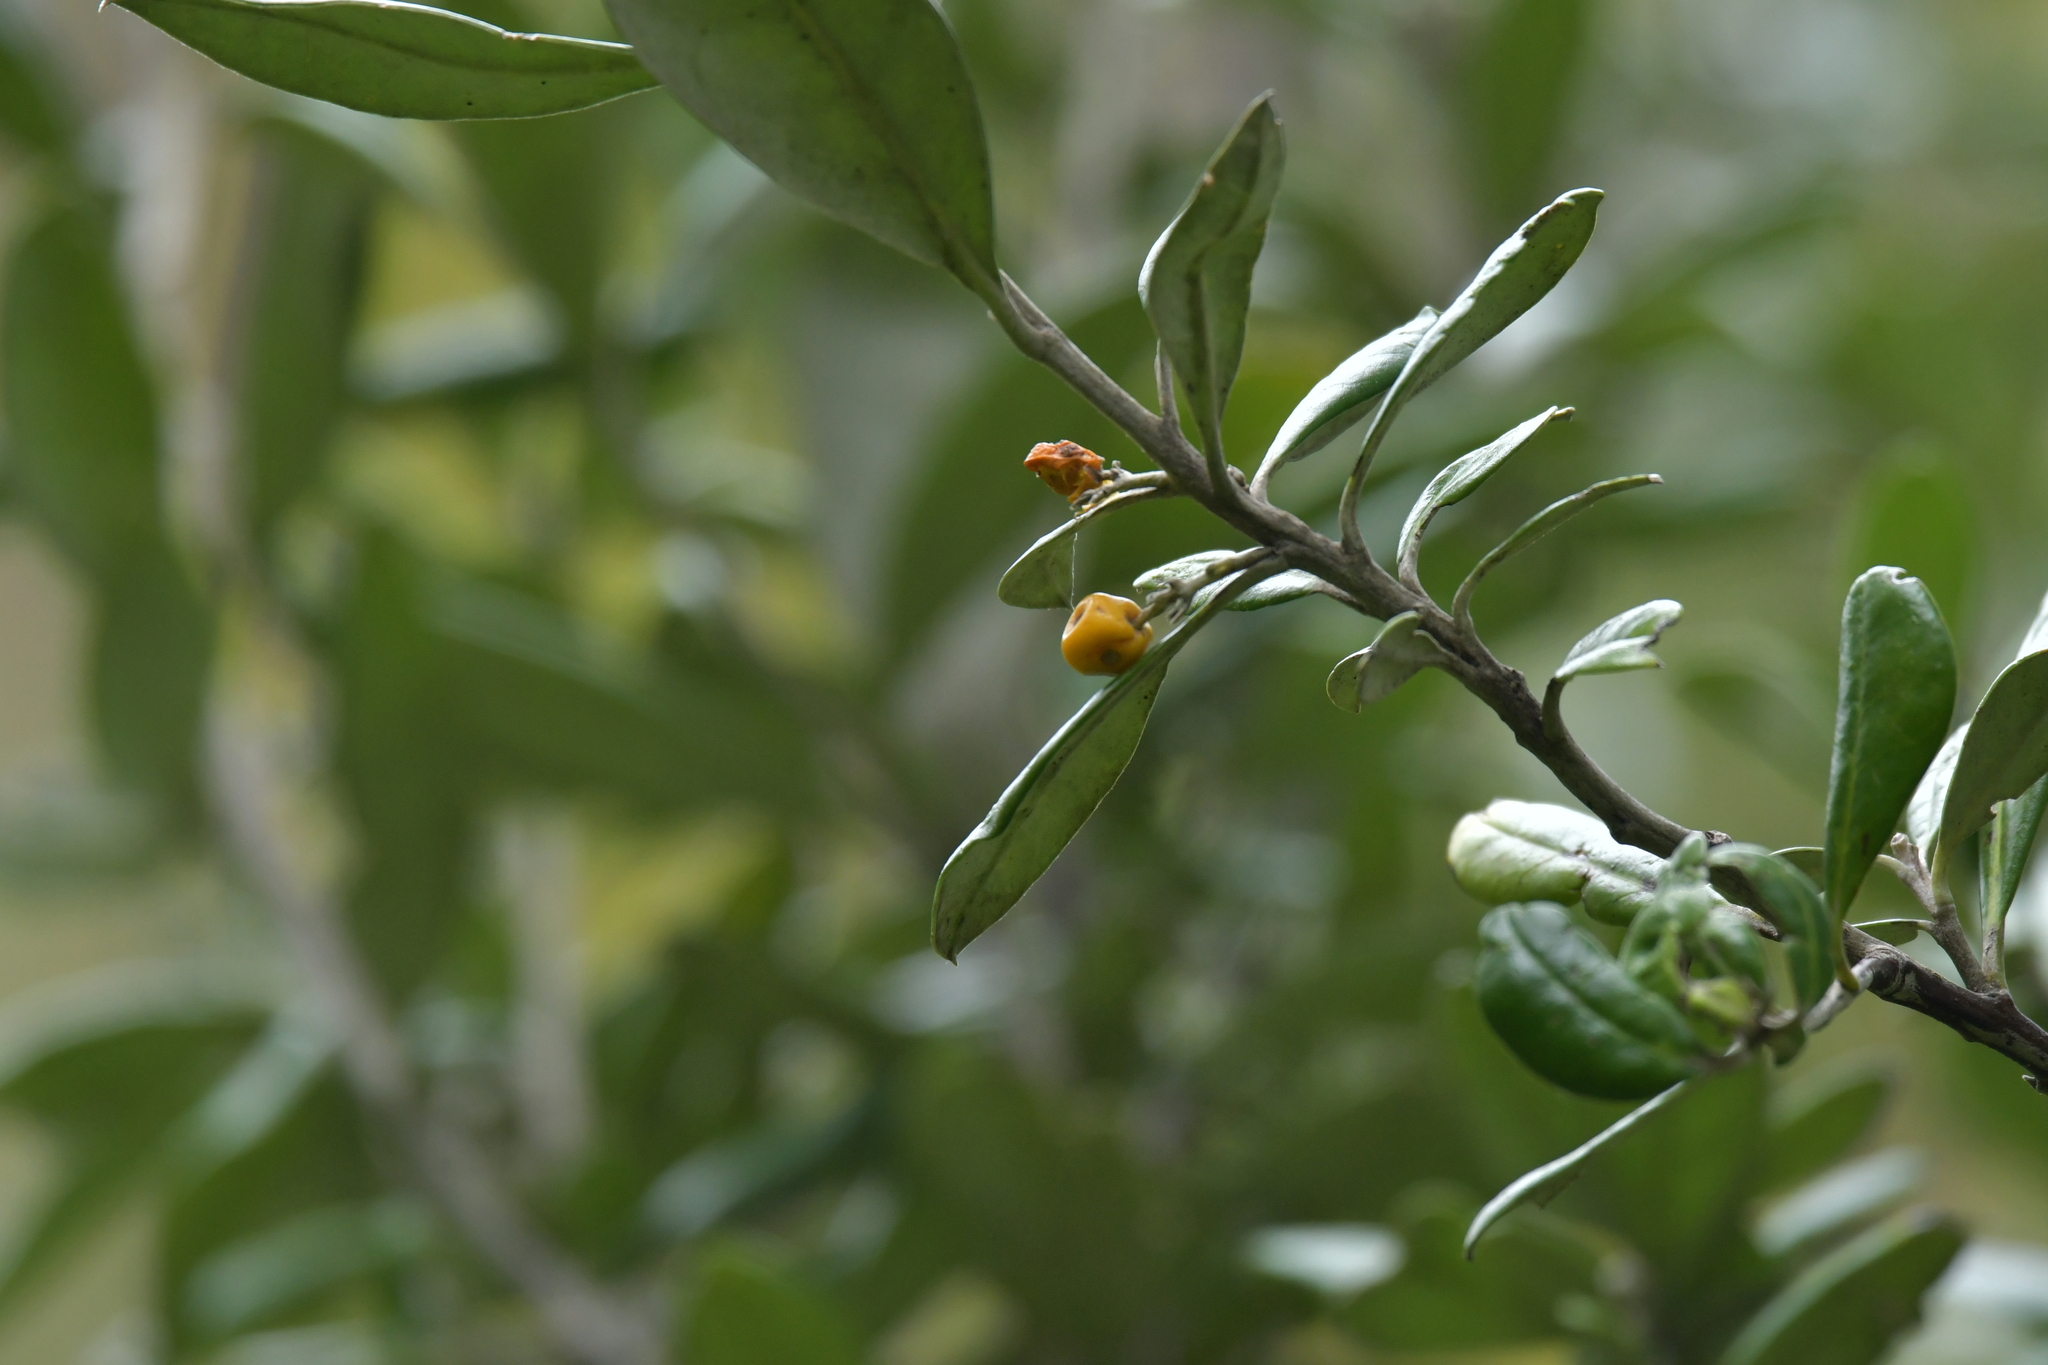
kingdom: Plantae
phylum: Tracheophyta
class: Magnoliopsida
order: Asterales
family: Argophyllaceae
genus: Corokia
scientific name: Corokia macrocarpa
